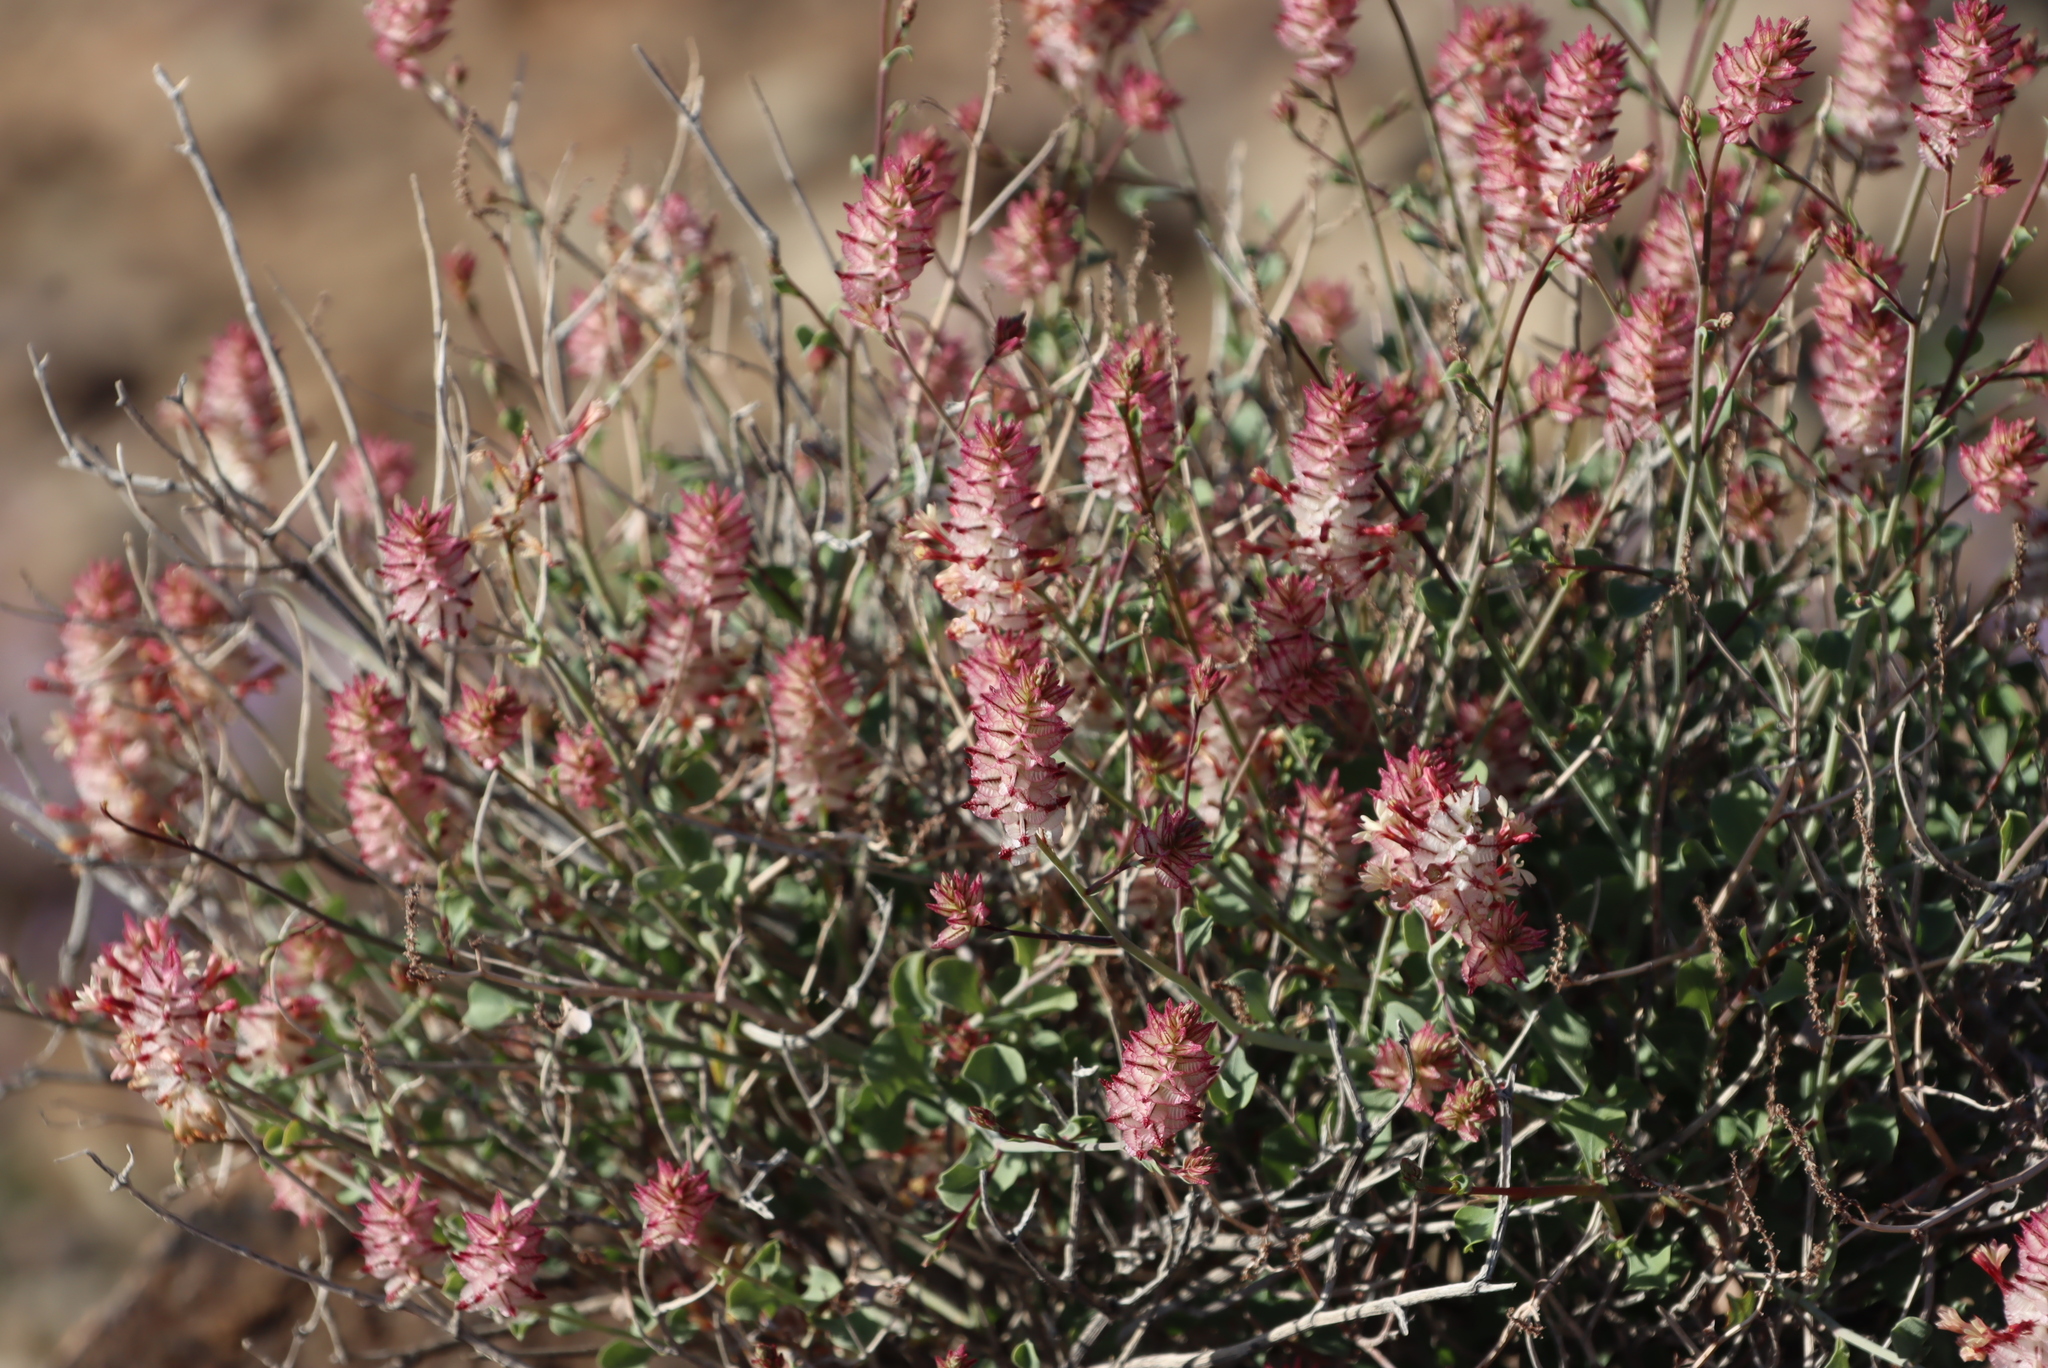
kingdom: Plantae
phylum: Tracheophyta
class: Magnoliopsida
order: Caryophyllales
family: Plumbaginaceae
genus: Dyerophytum
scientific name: Dyerophytum africanum
